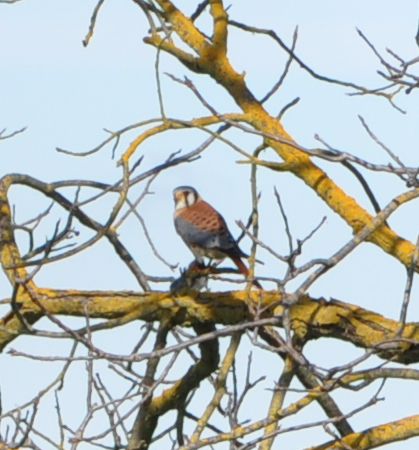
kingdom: Animalia
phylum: Chordata
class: Aves
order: Falconiformes
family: Falconidae
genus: Falco
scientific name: Falco sparverius
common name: American kestrel
